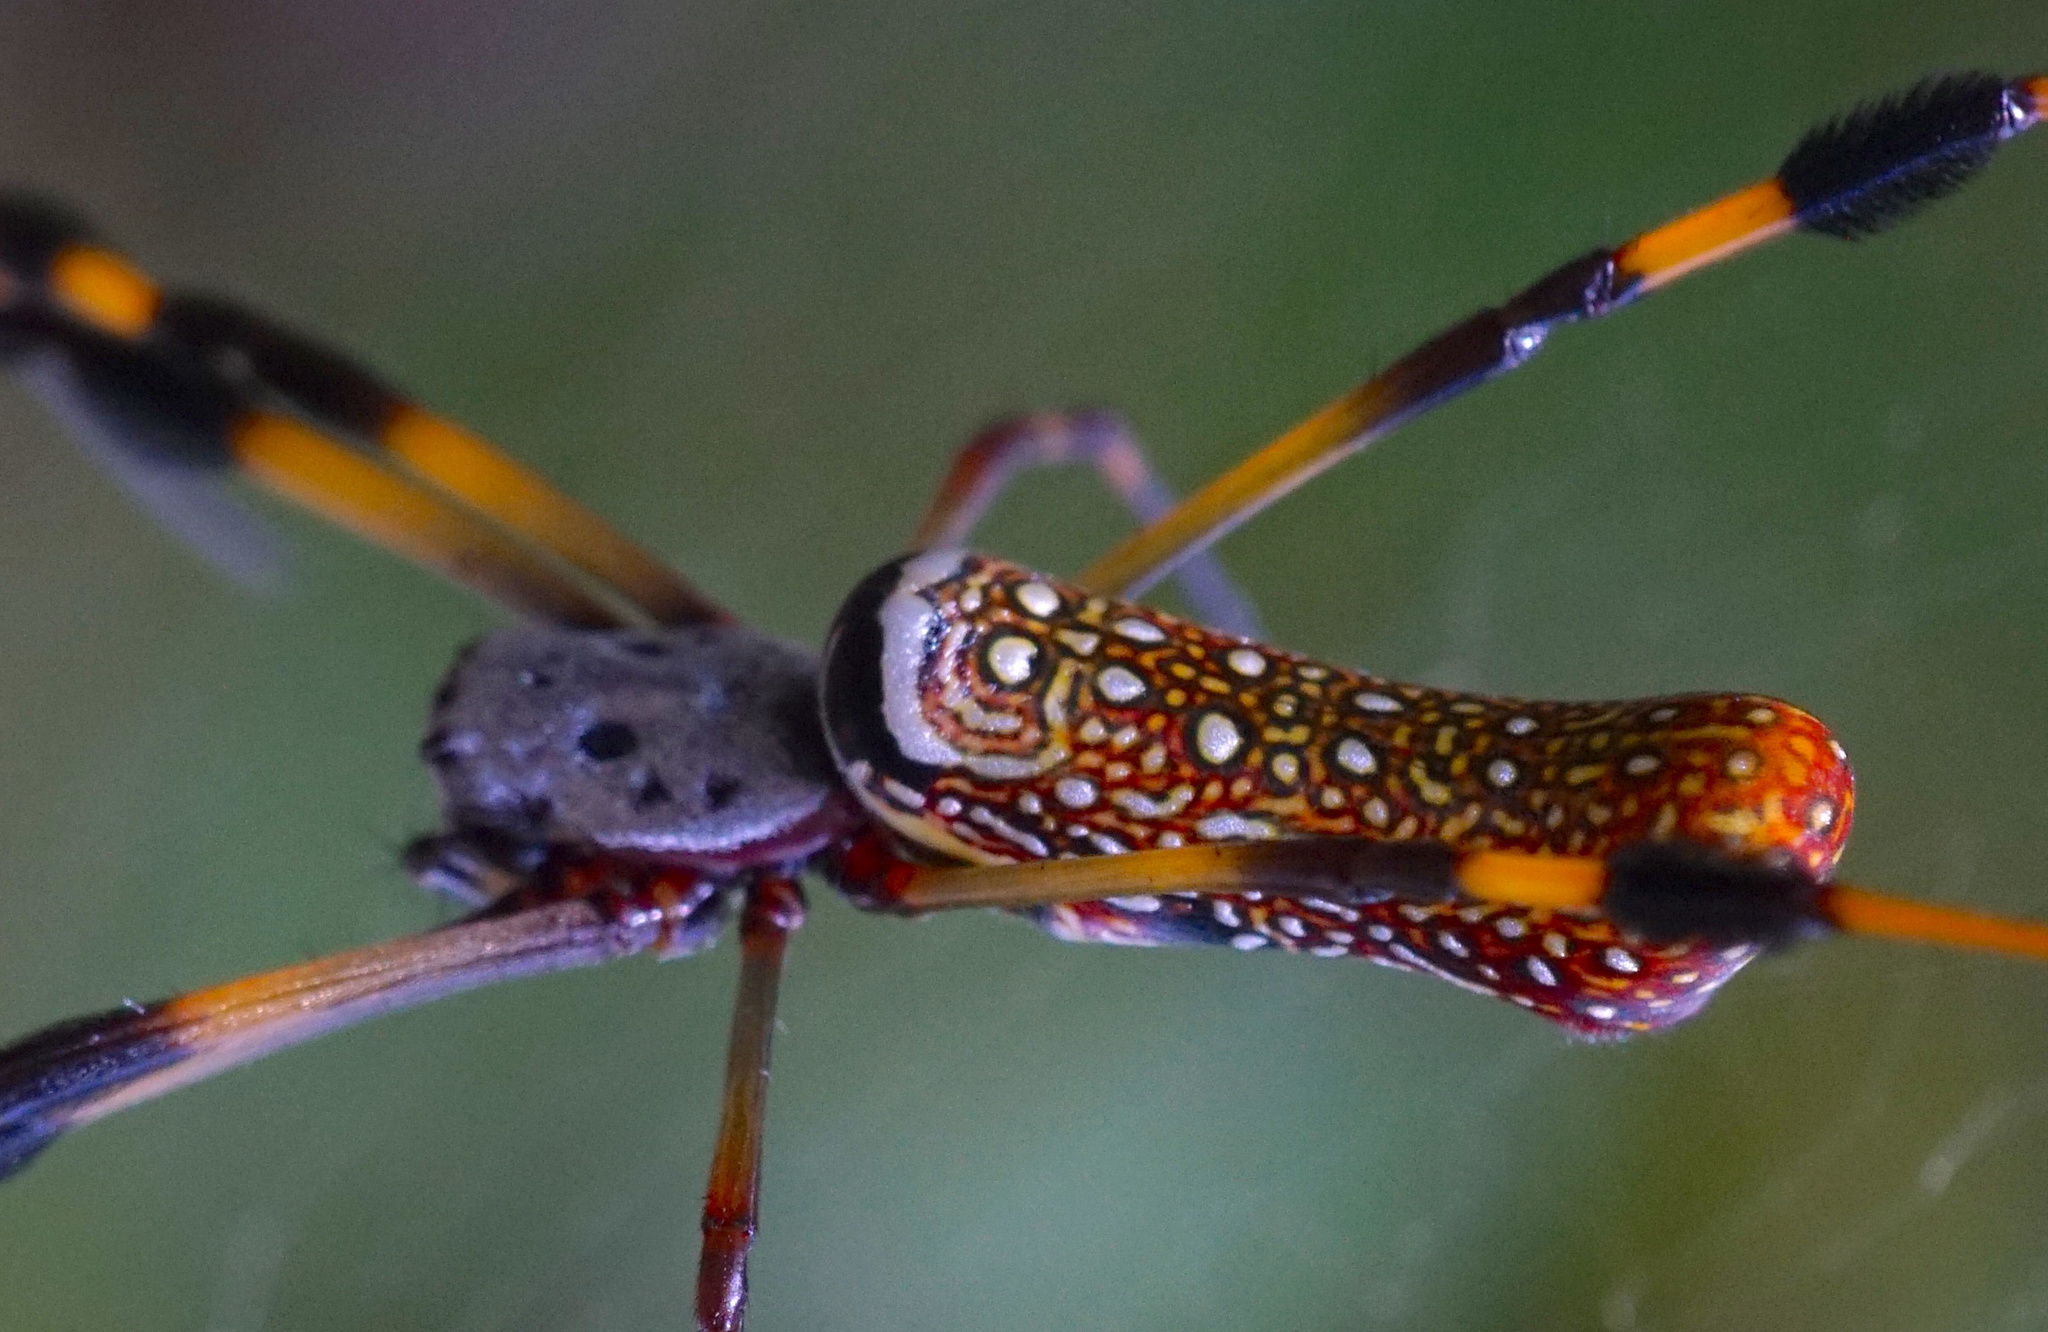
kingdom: Animalia
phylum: Arthropoda
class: Arachnida
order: Araneae
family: Araneidae
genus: Trichonephila
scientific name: Trichonephila clavipes
